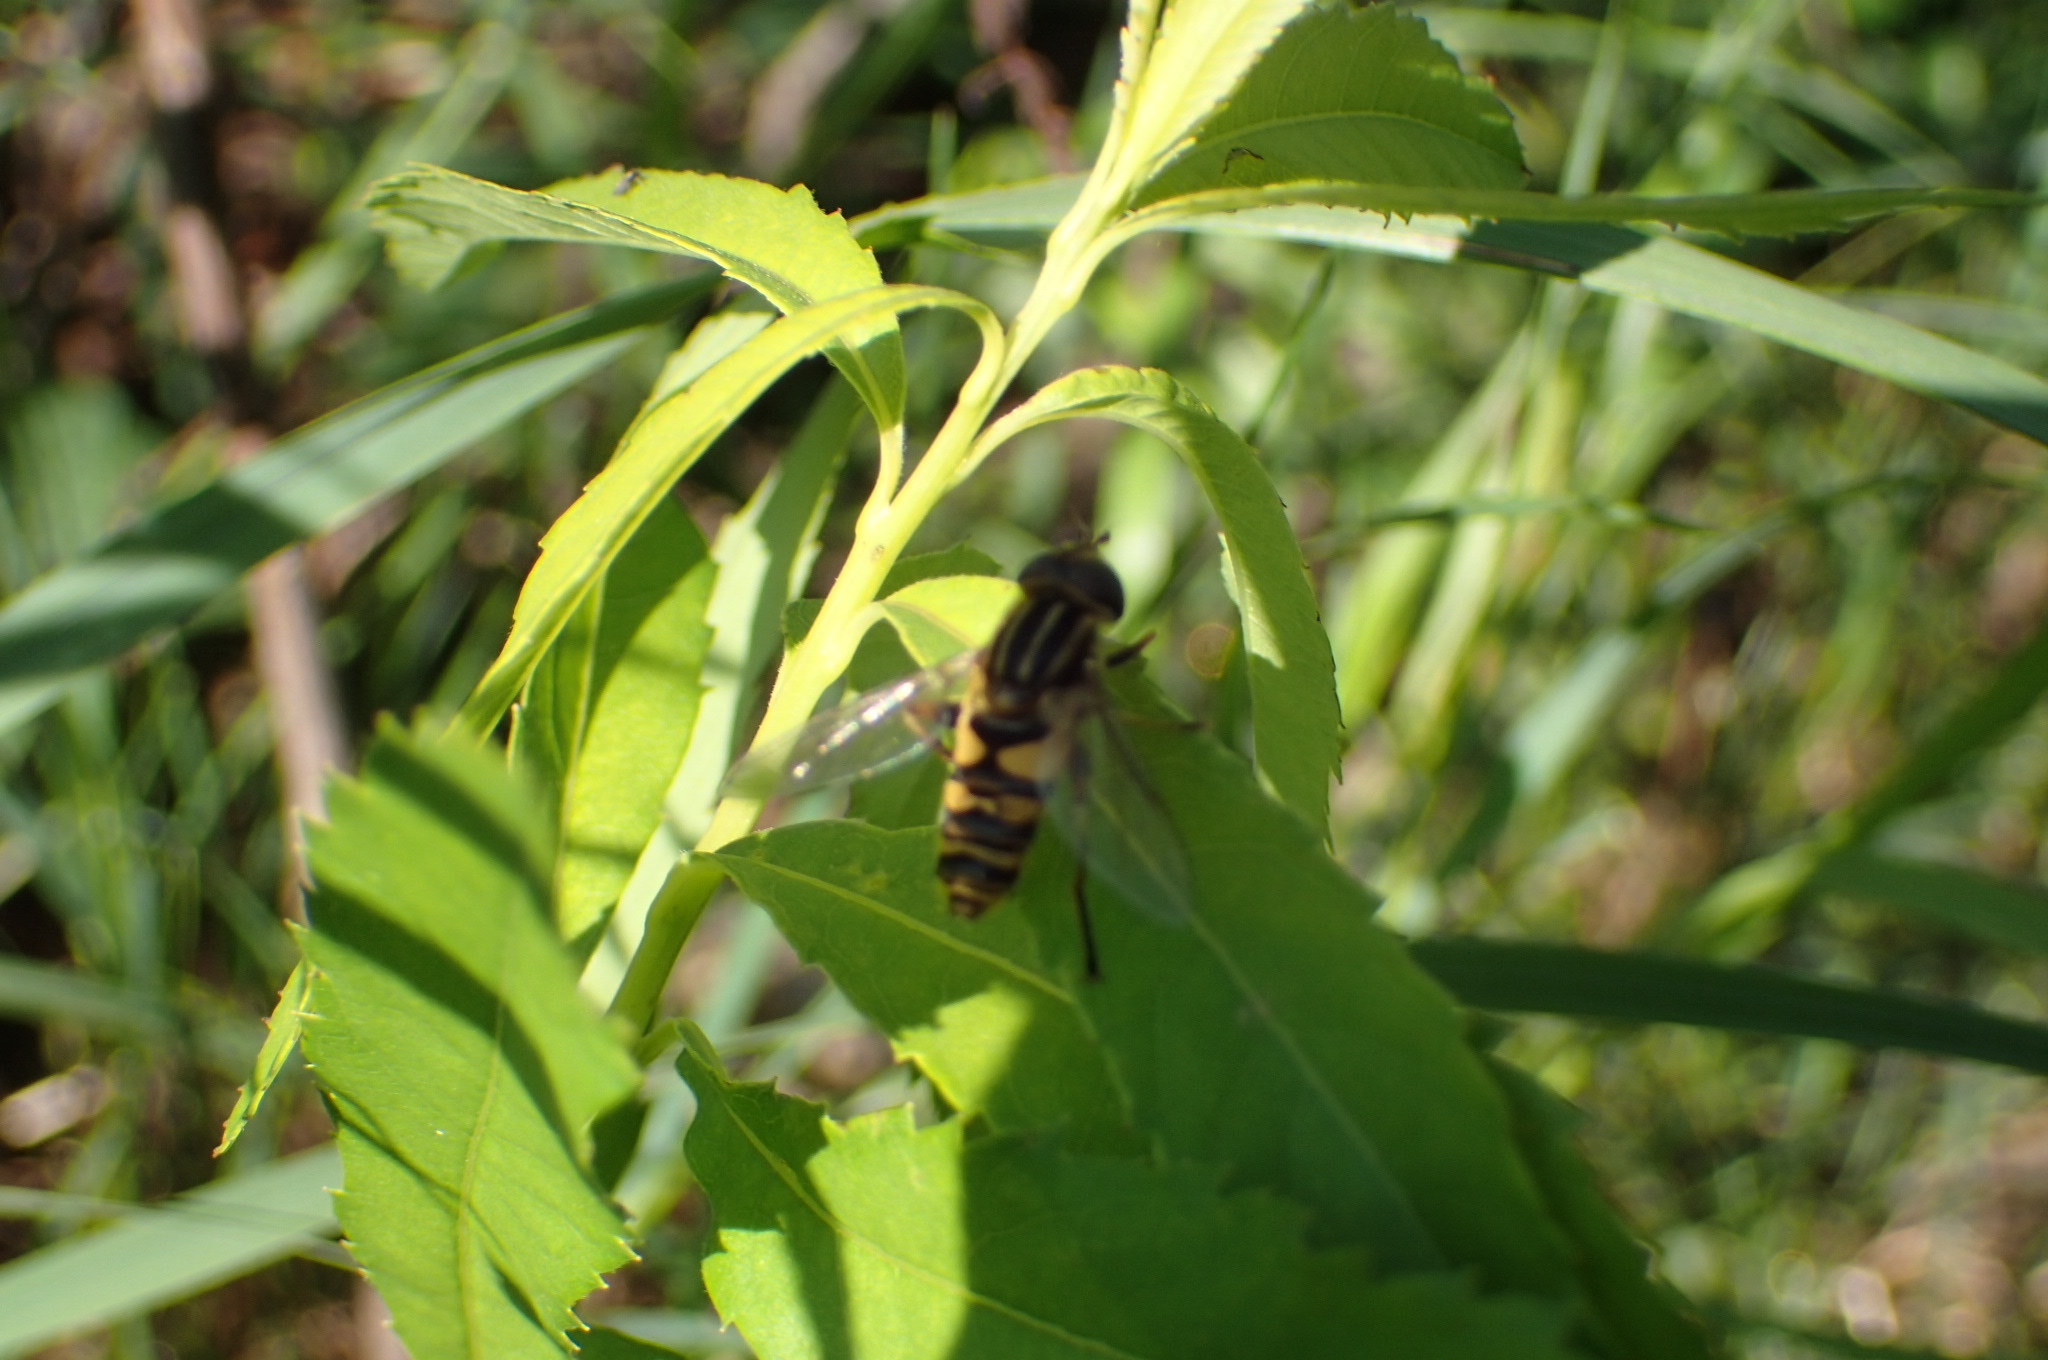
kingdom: Animalia
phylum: Arthropoda
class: Insecta
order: Diptera
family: Syrphidae
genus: Helophilus
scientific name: Helophilus fasciatus
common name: Narrow-headed marsh fly
